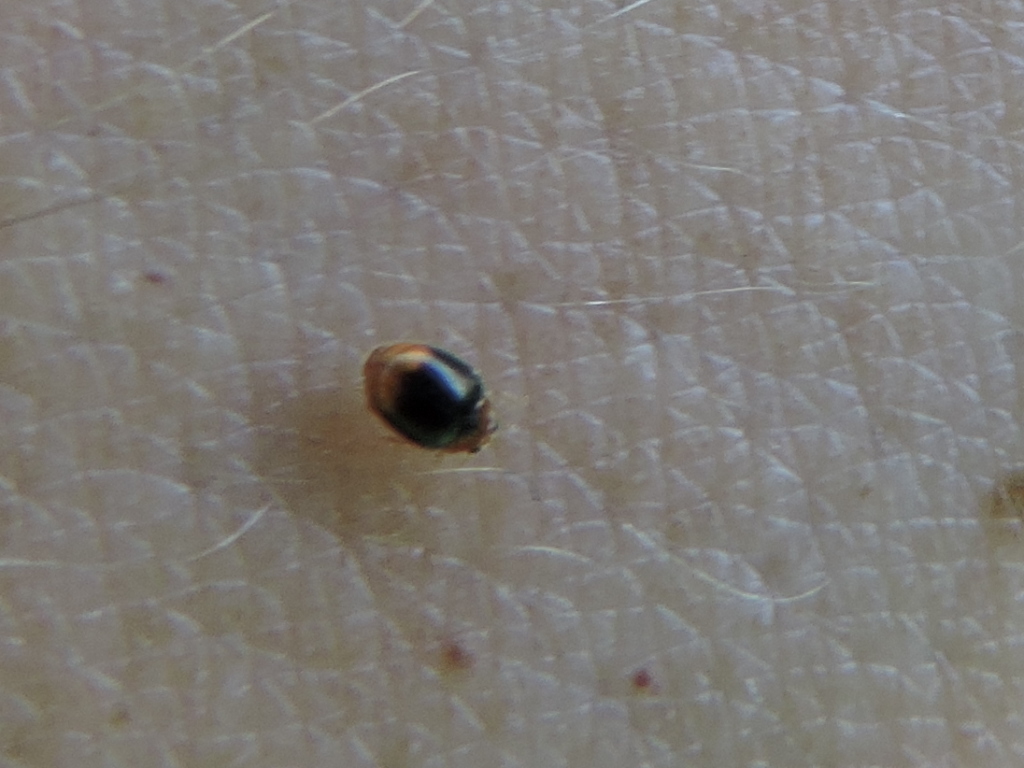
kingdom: Animalia
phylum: Arthropoda
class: Insecta
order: Coleoptera
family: Coccinellidae
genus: Diomus
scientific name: Diomus terminatus
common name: Firefly duskyling
